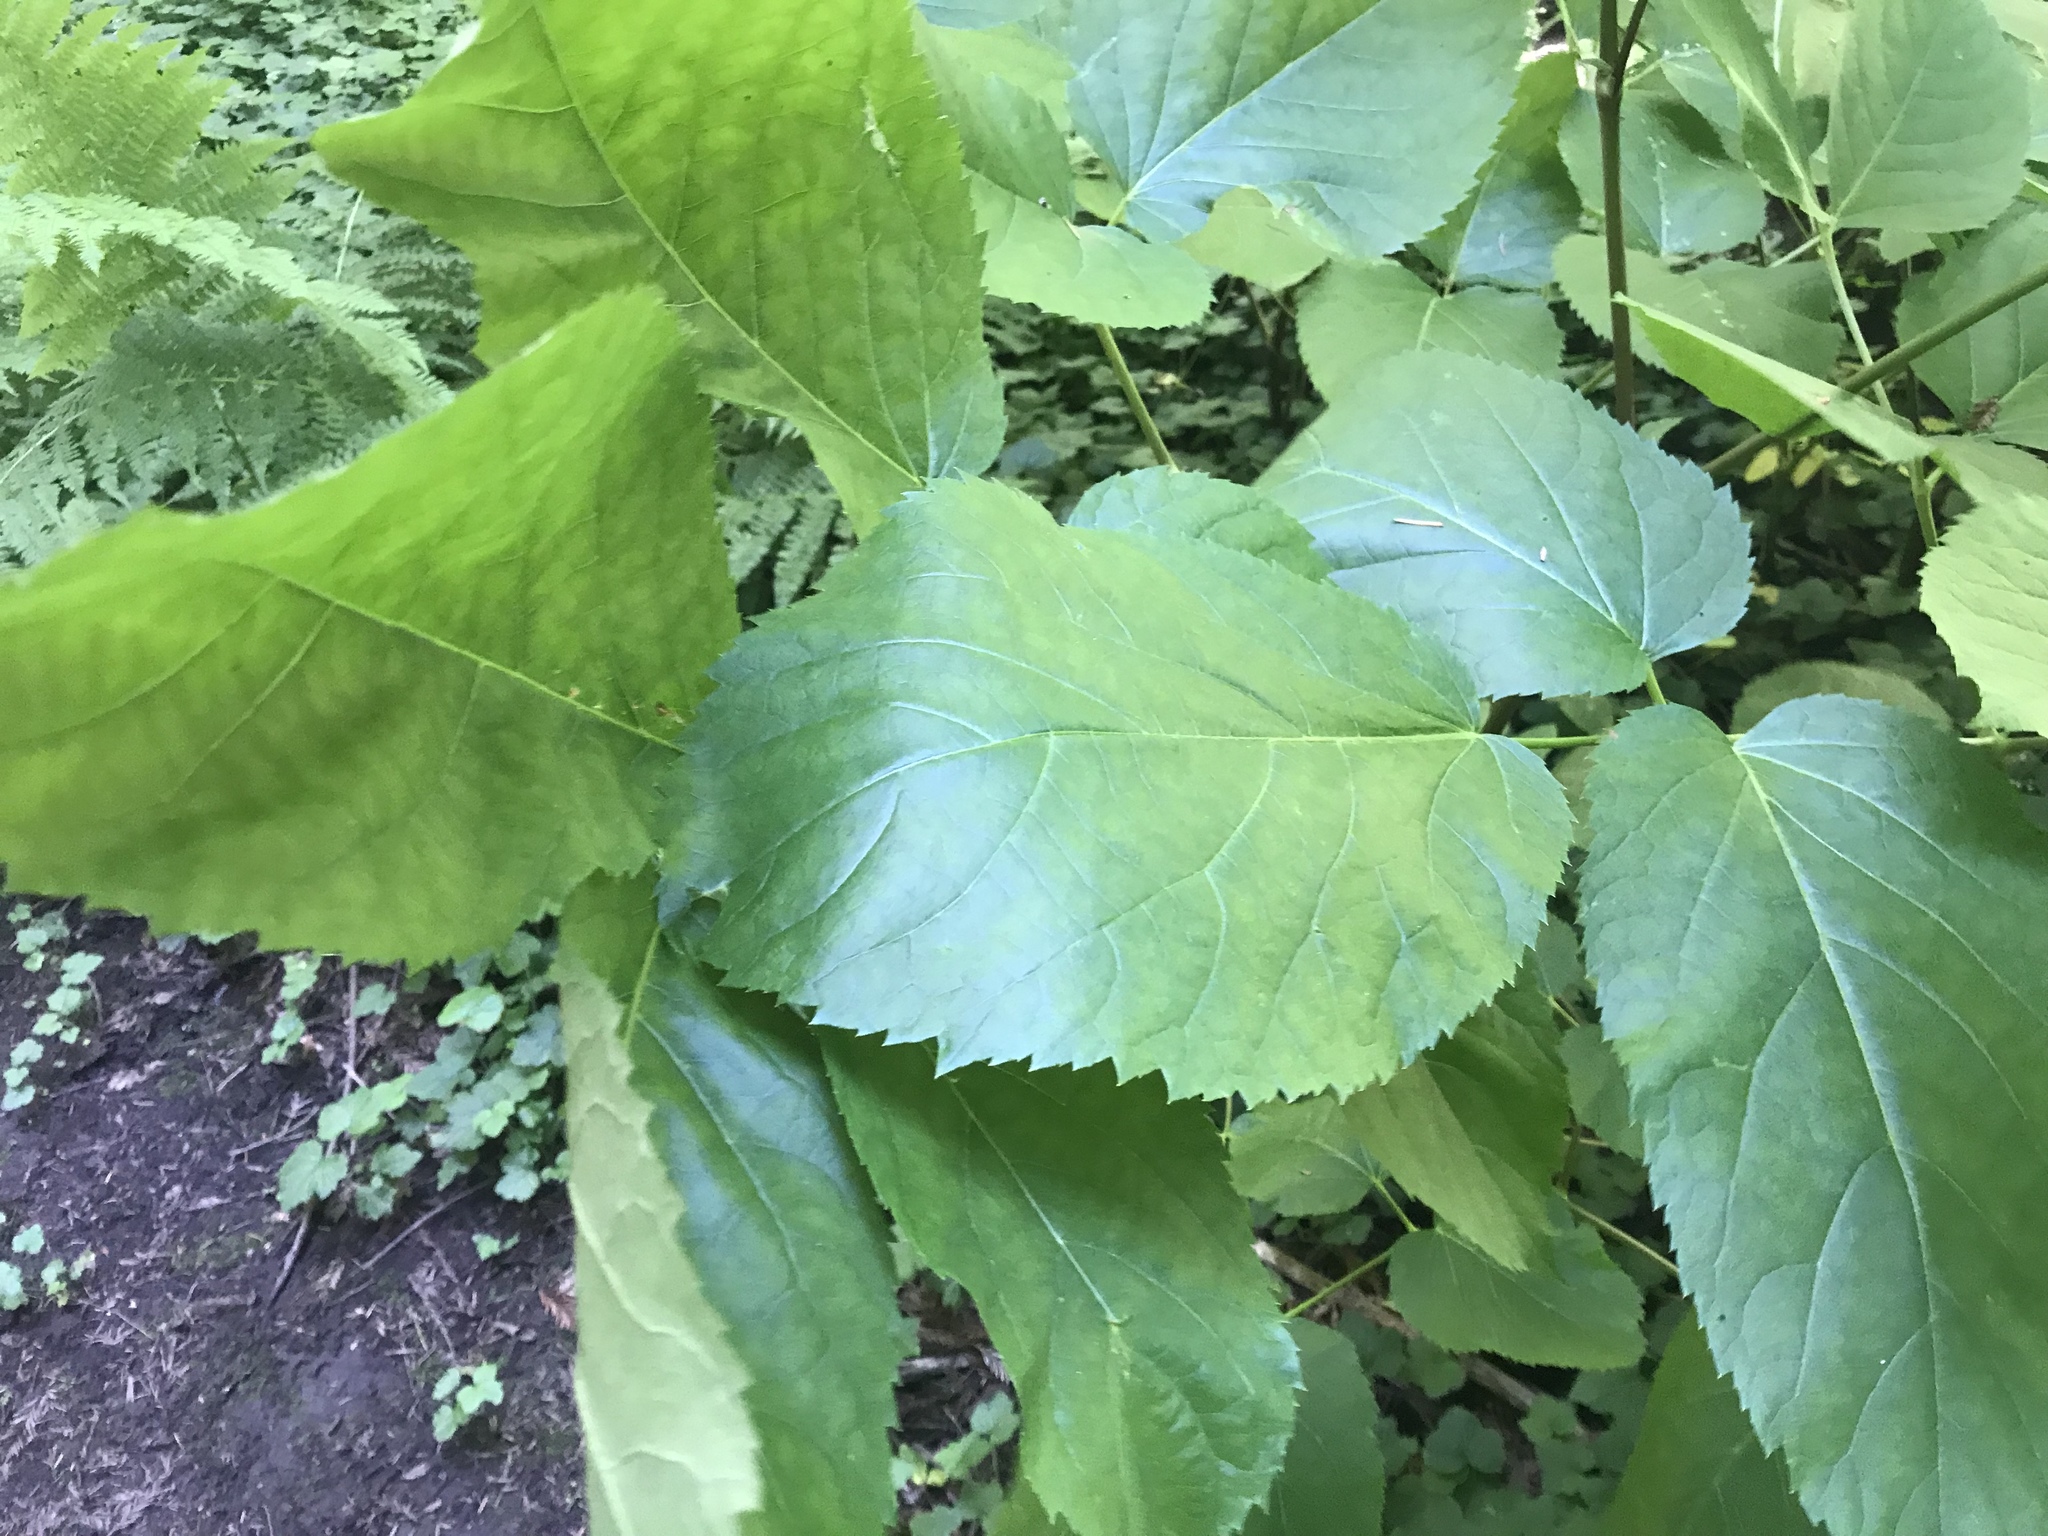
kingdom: Plantae
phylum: Tracheophyta
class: Magnoliopsida
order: Apiales
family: Araliaceae
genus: Aralia
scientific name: Aralia californica
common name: California-ginseng
